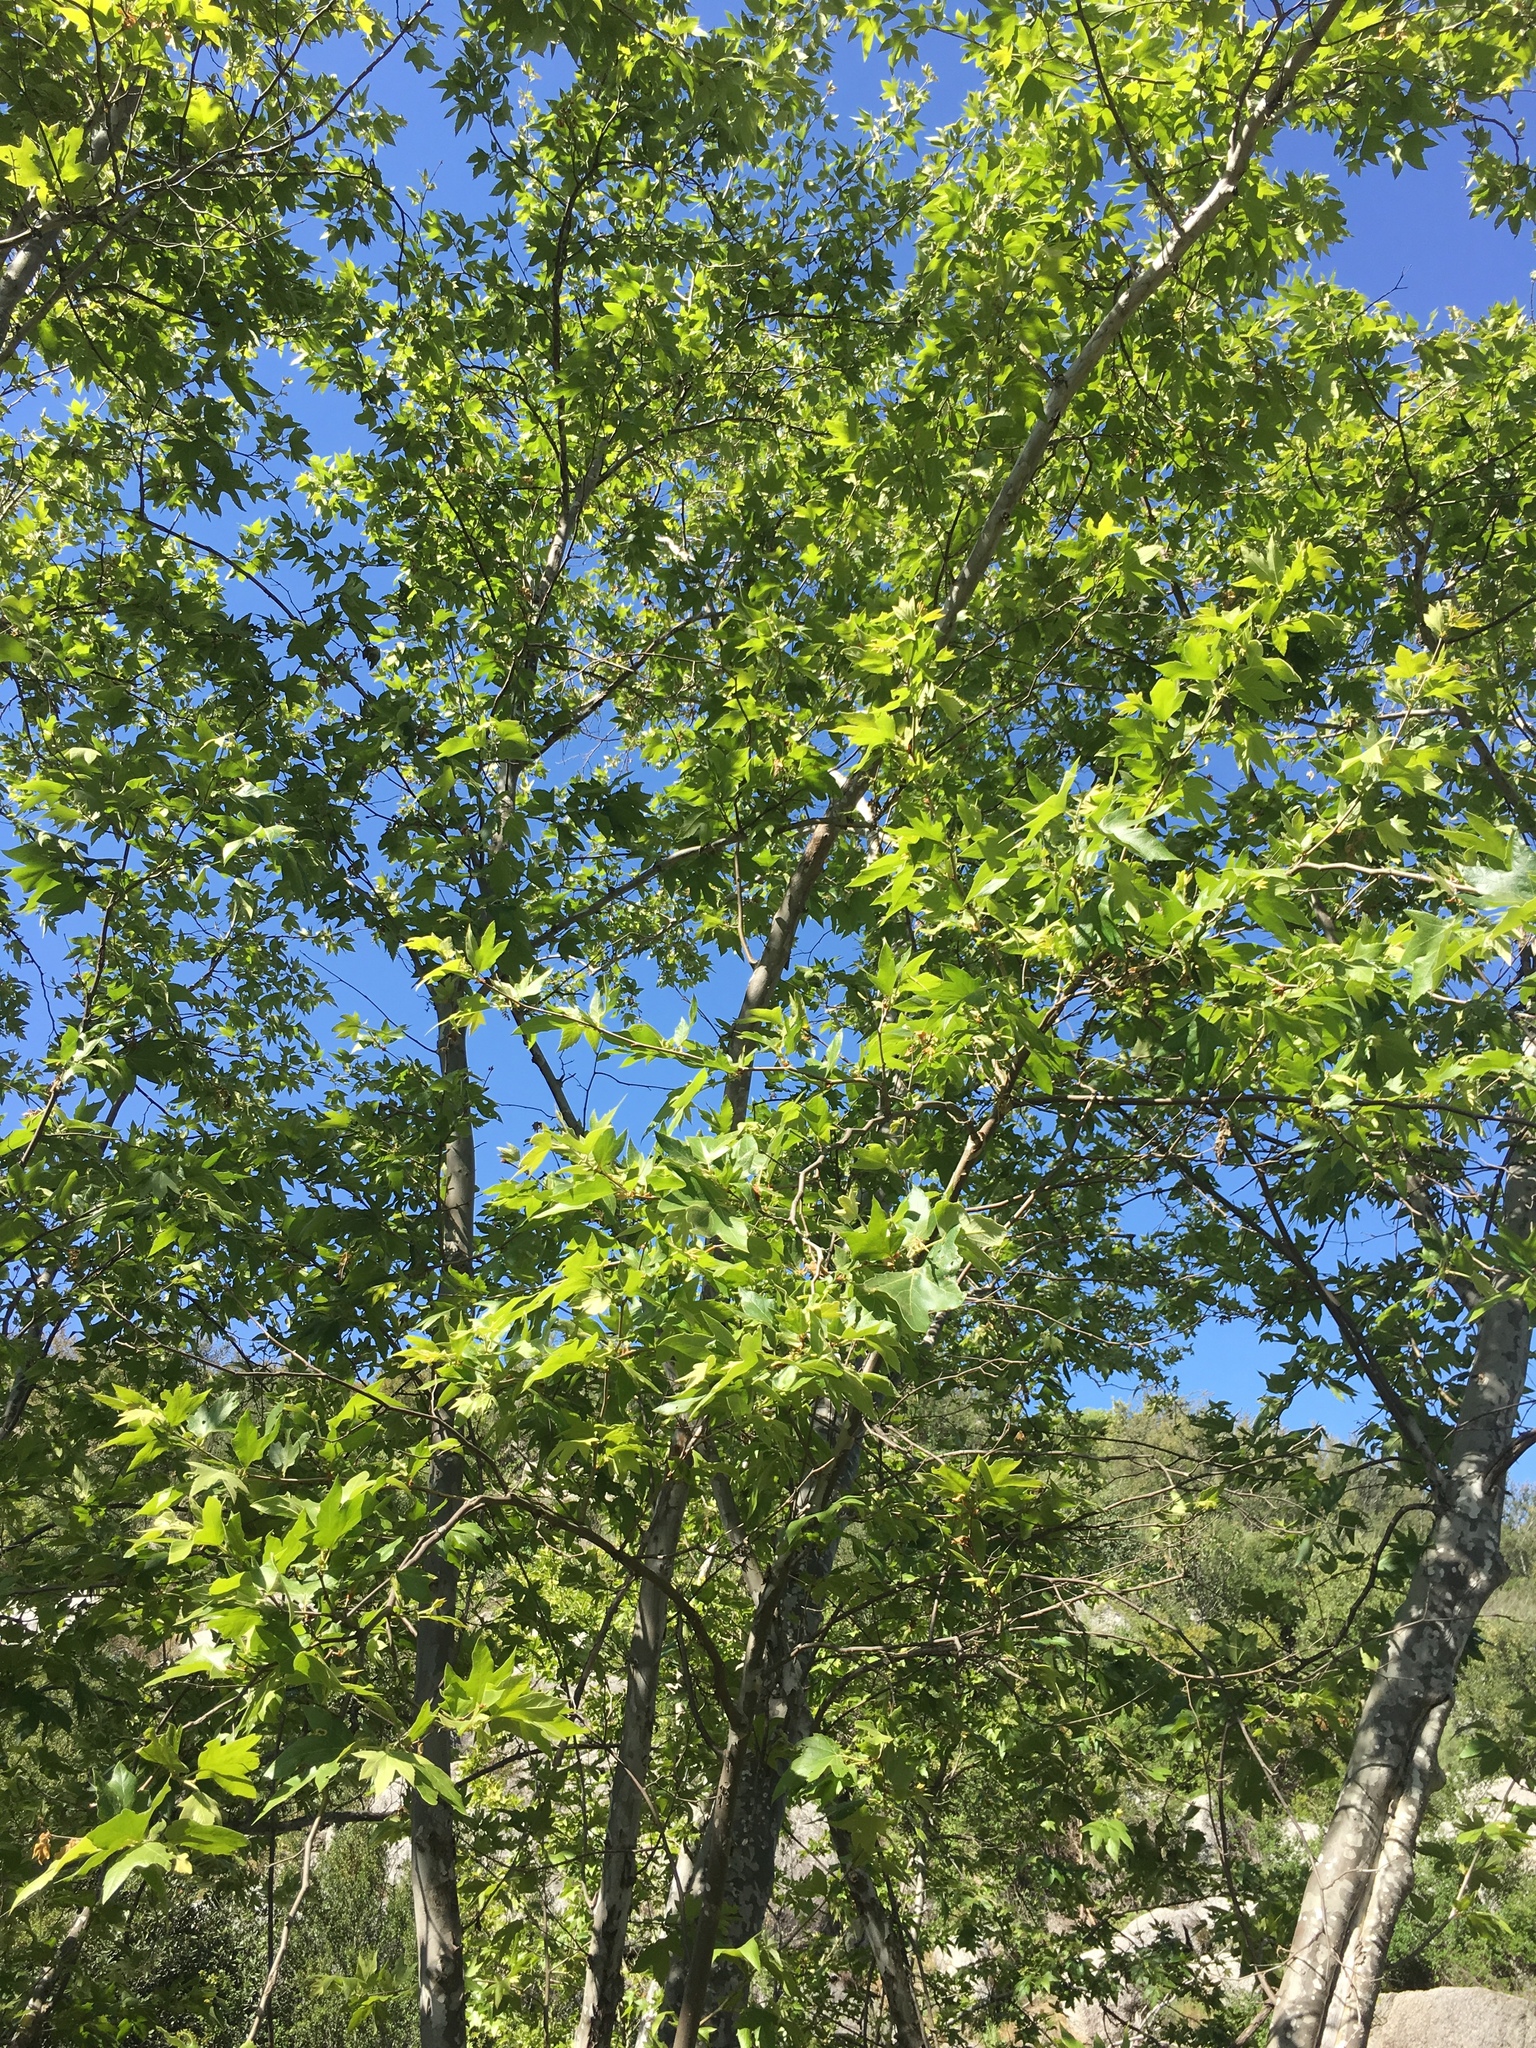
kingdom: Plantae
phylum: Tracheophyta
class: Magnoliopsida
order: Proteales
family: Platanaceae
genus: Platanus
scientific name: Platanus racemosa
